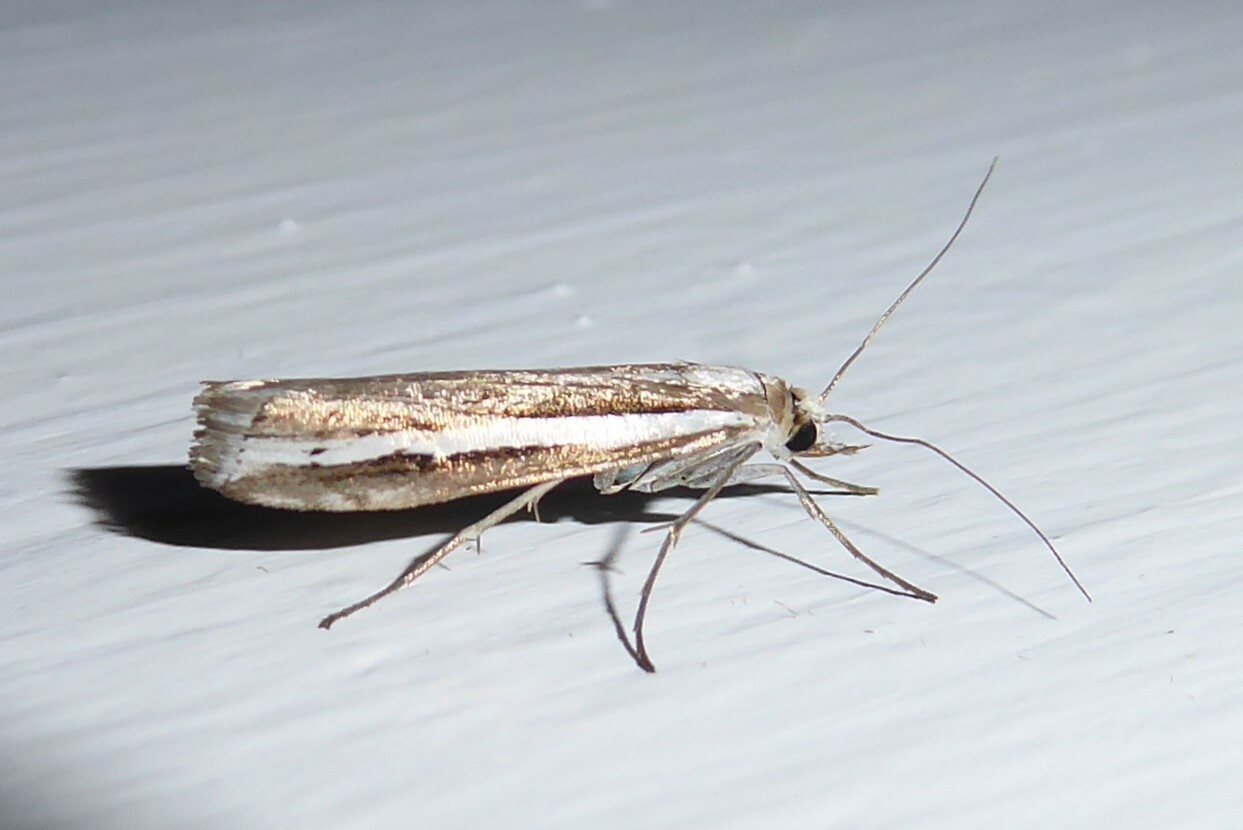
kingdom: Animalia
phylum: Arthropoda
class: Insecta
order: Lepidoptera
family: Crambidae
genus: Orocrambus
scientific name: Orocrambus vittellus
